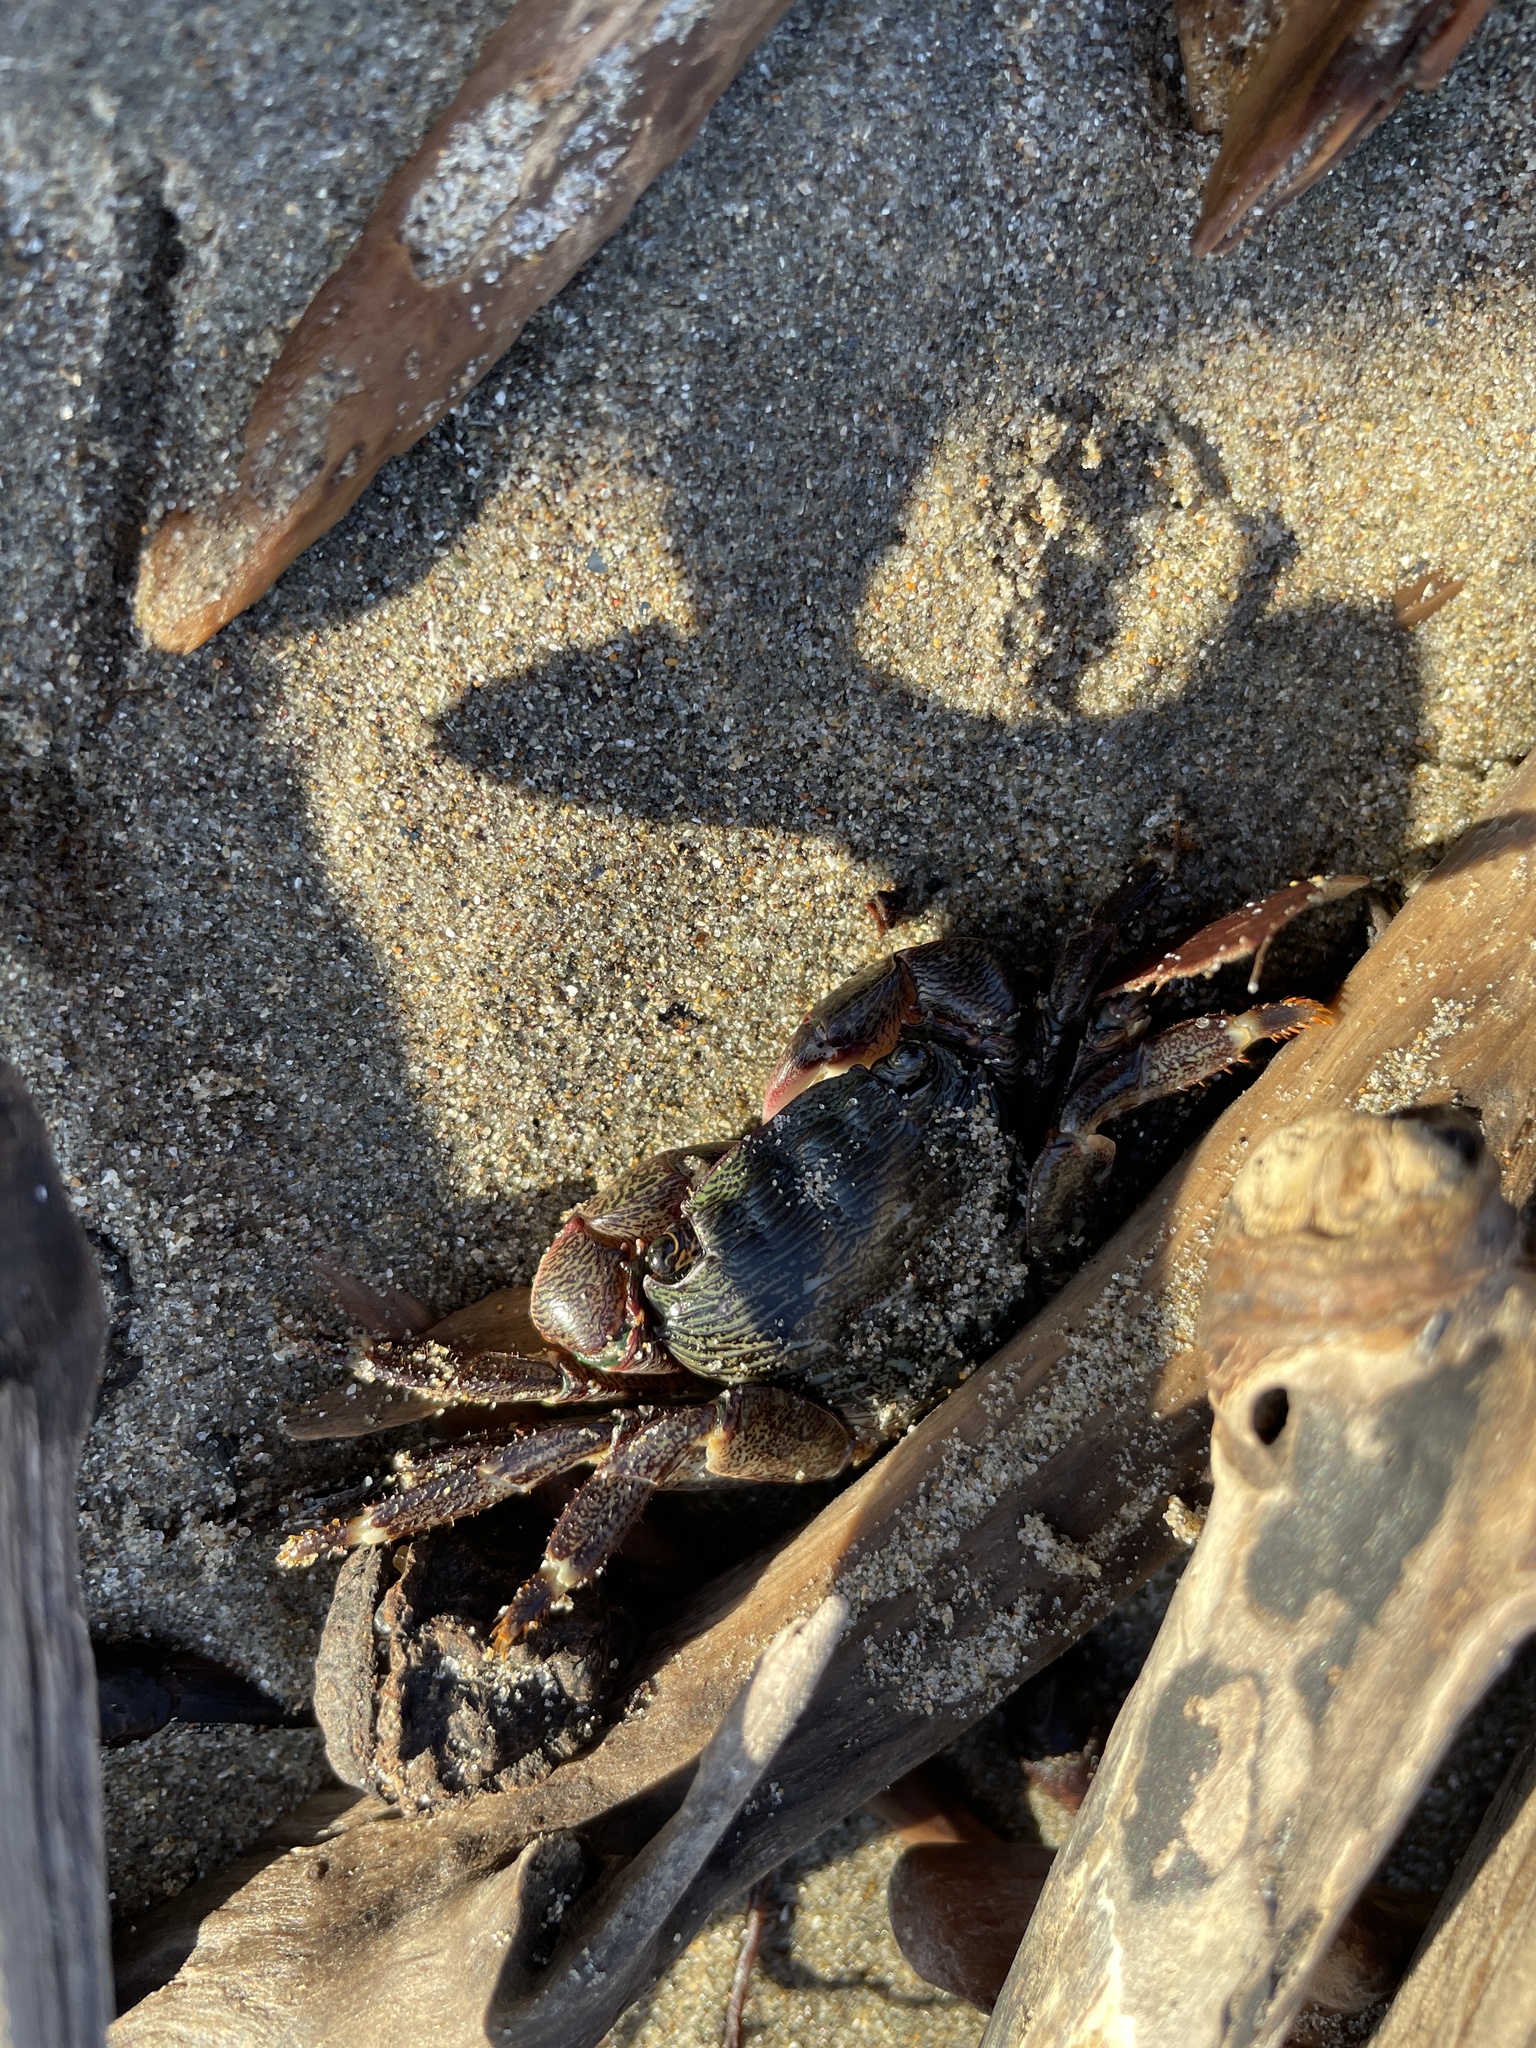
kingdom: Animalia
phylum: Arthropoda
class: Malacostraca
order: Decapoda
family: Grapsidae
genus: Pachygrapsus
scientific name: Pachygrapsus crassipes
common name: Striped shore crab
